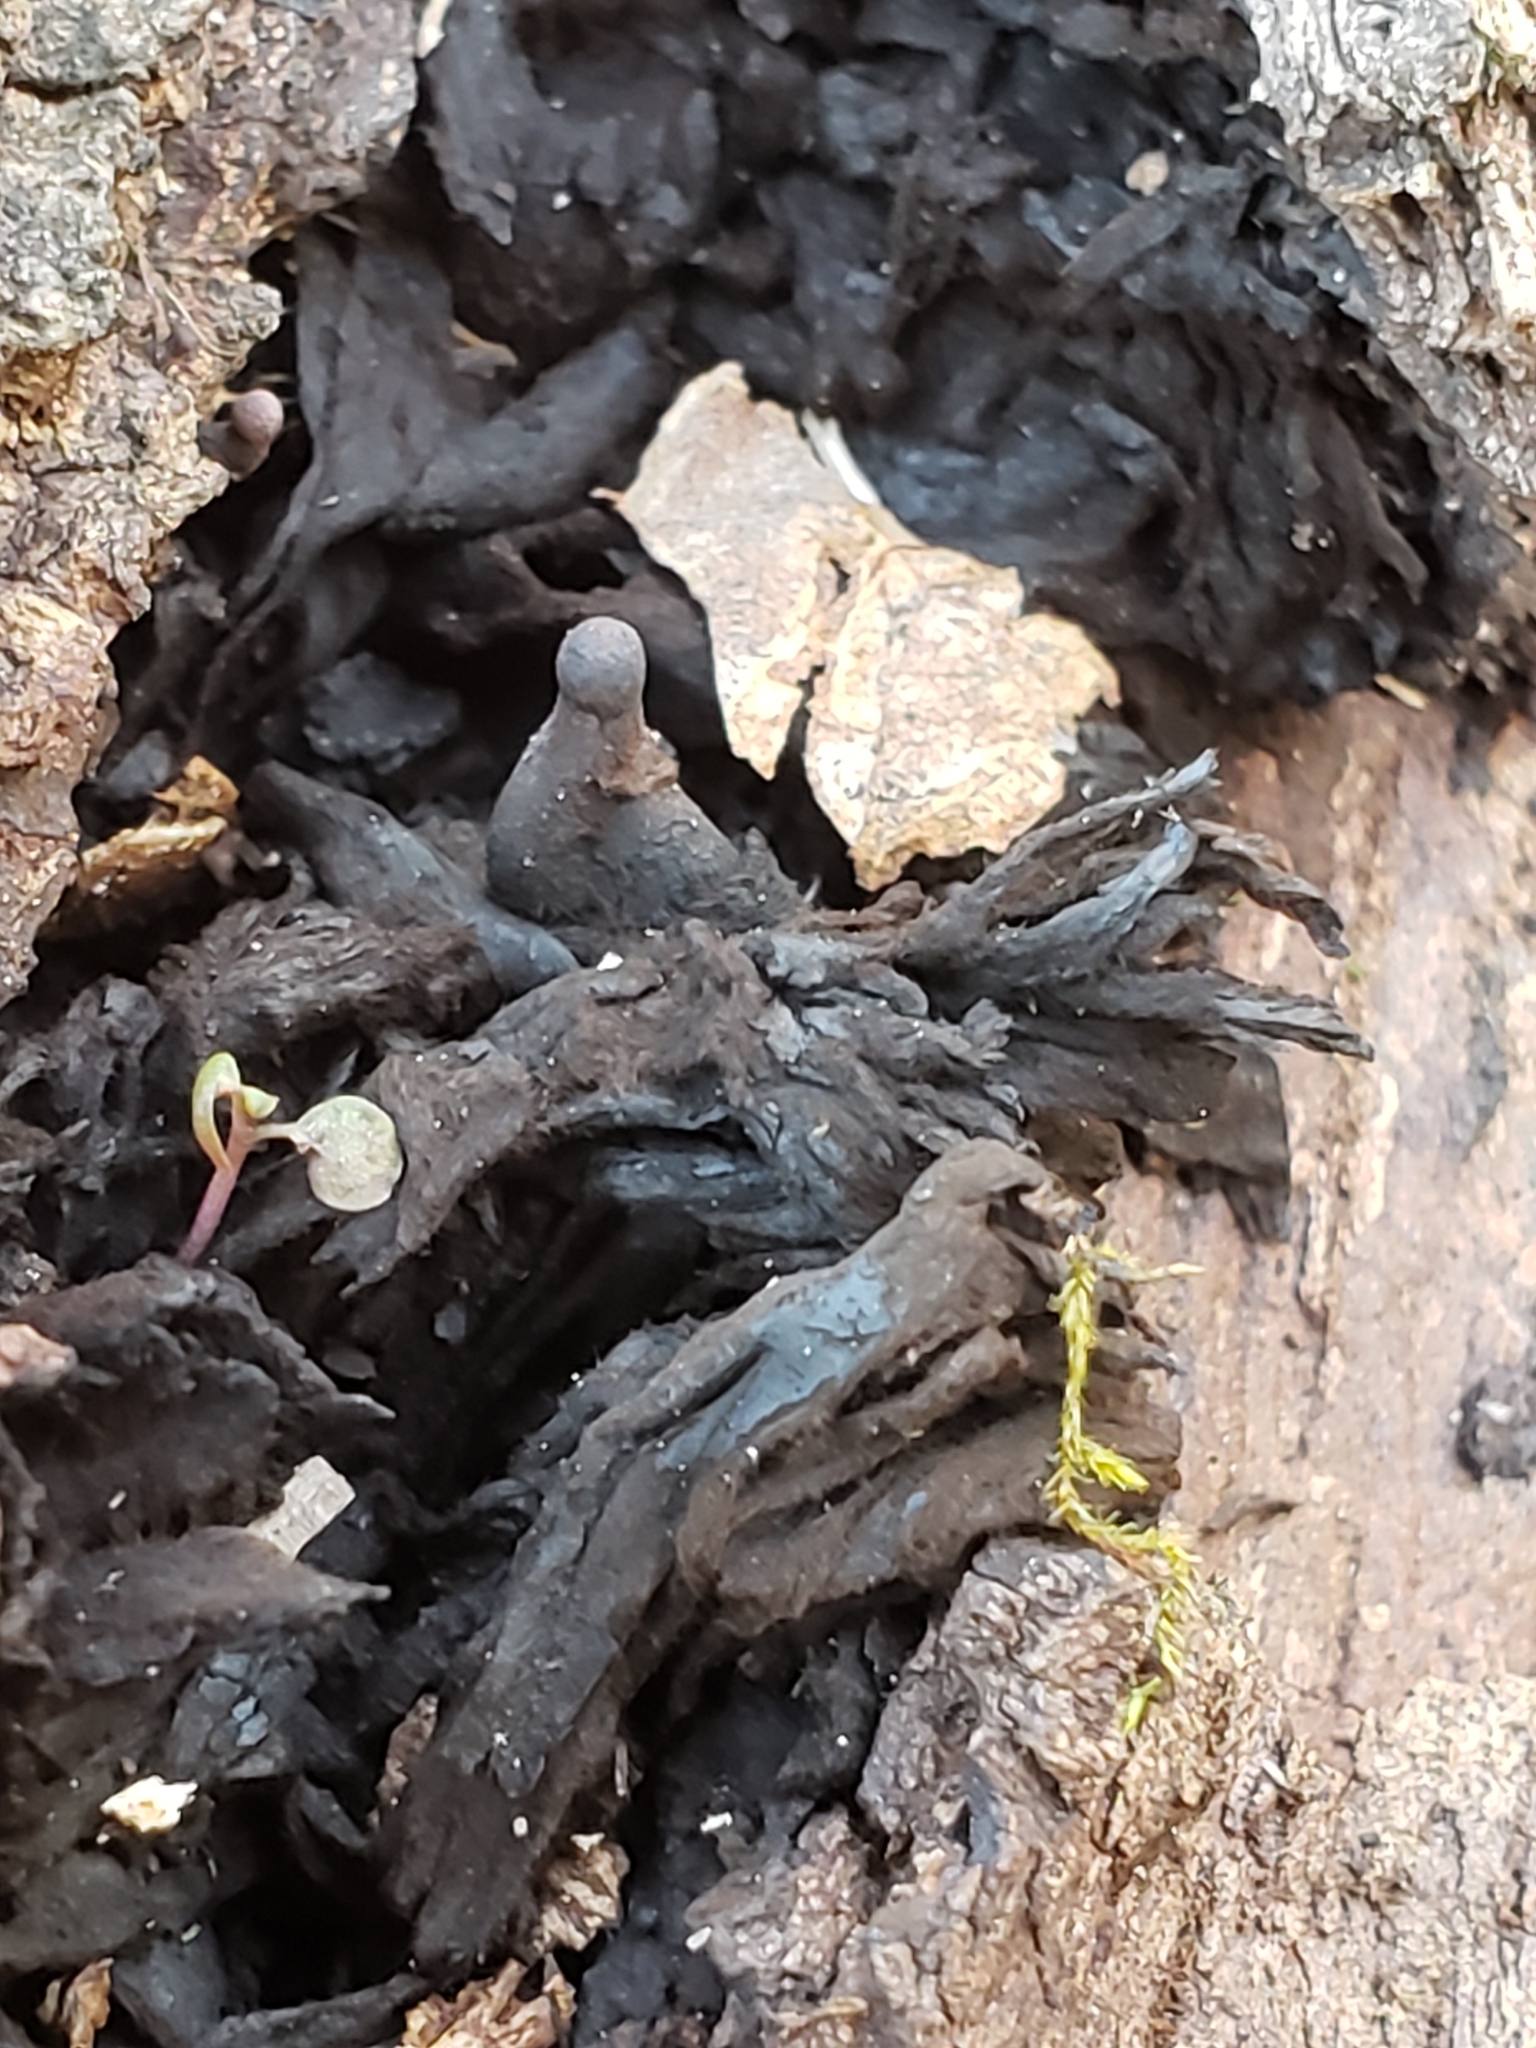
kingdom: Fungi
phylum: Ascomycota
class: Sordariomycetes
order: Xylariales
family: Xylariaceae
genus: Xylaria
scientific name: Xylaria polymorpha
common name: Dead man's fingers
